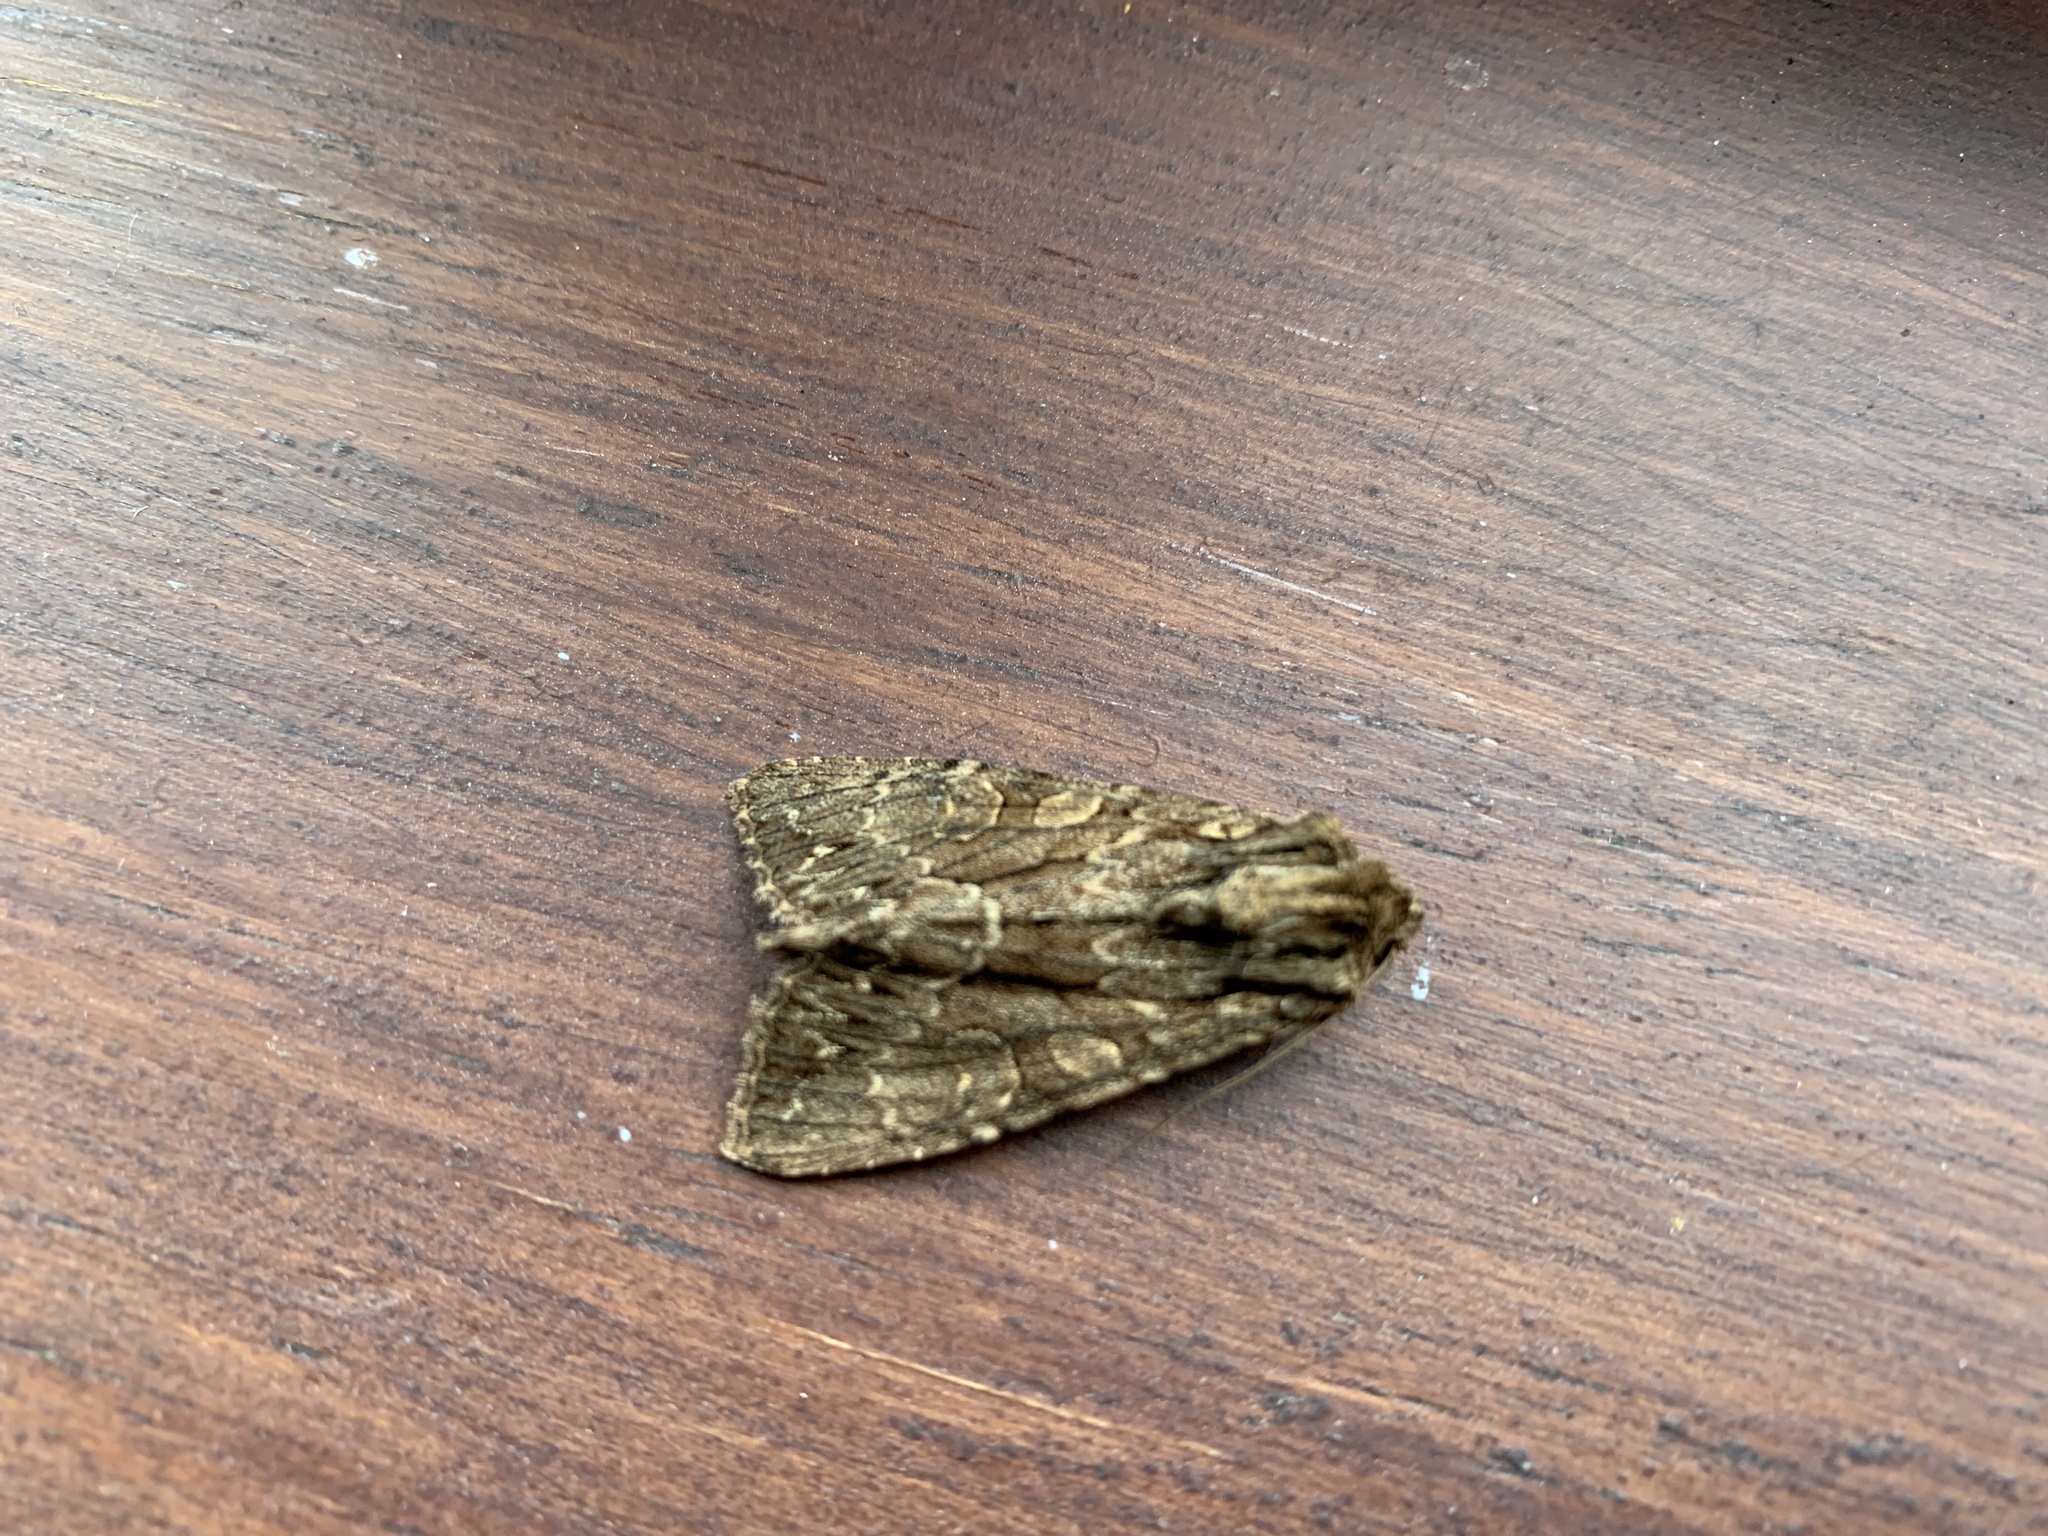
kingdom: Animalia
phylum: Arthropoda
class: Insecta
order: Lepidoptera
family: Noctuidae
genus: Apamea
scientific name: Apamea monoglypha
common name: Dark arches
